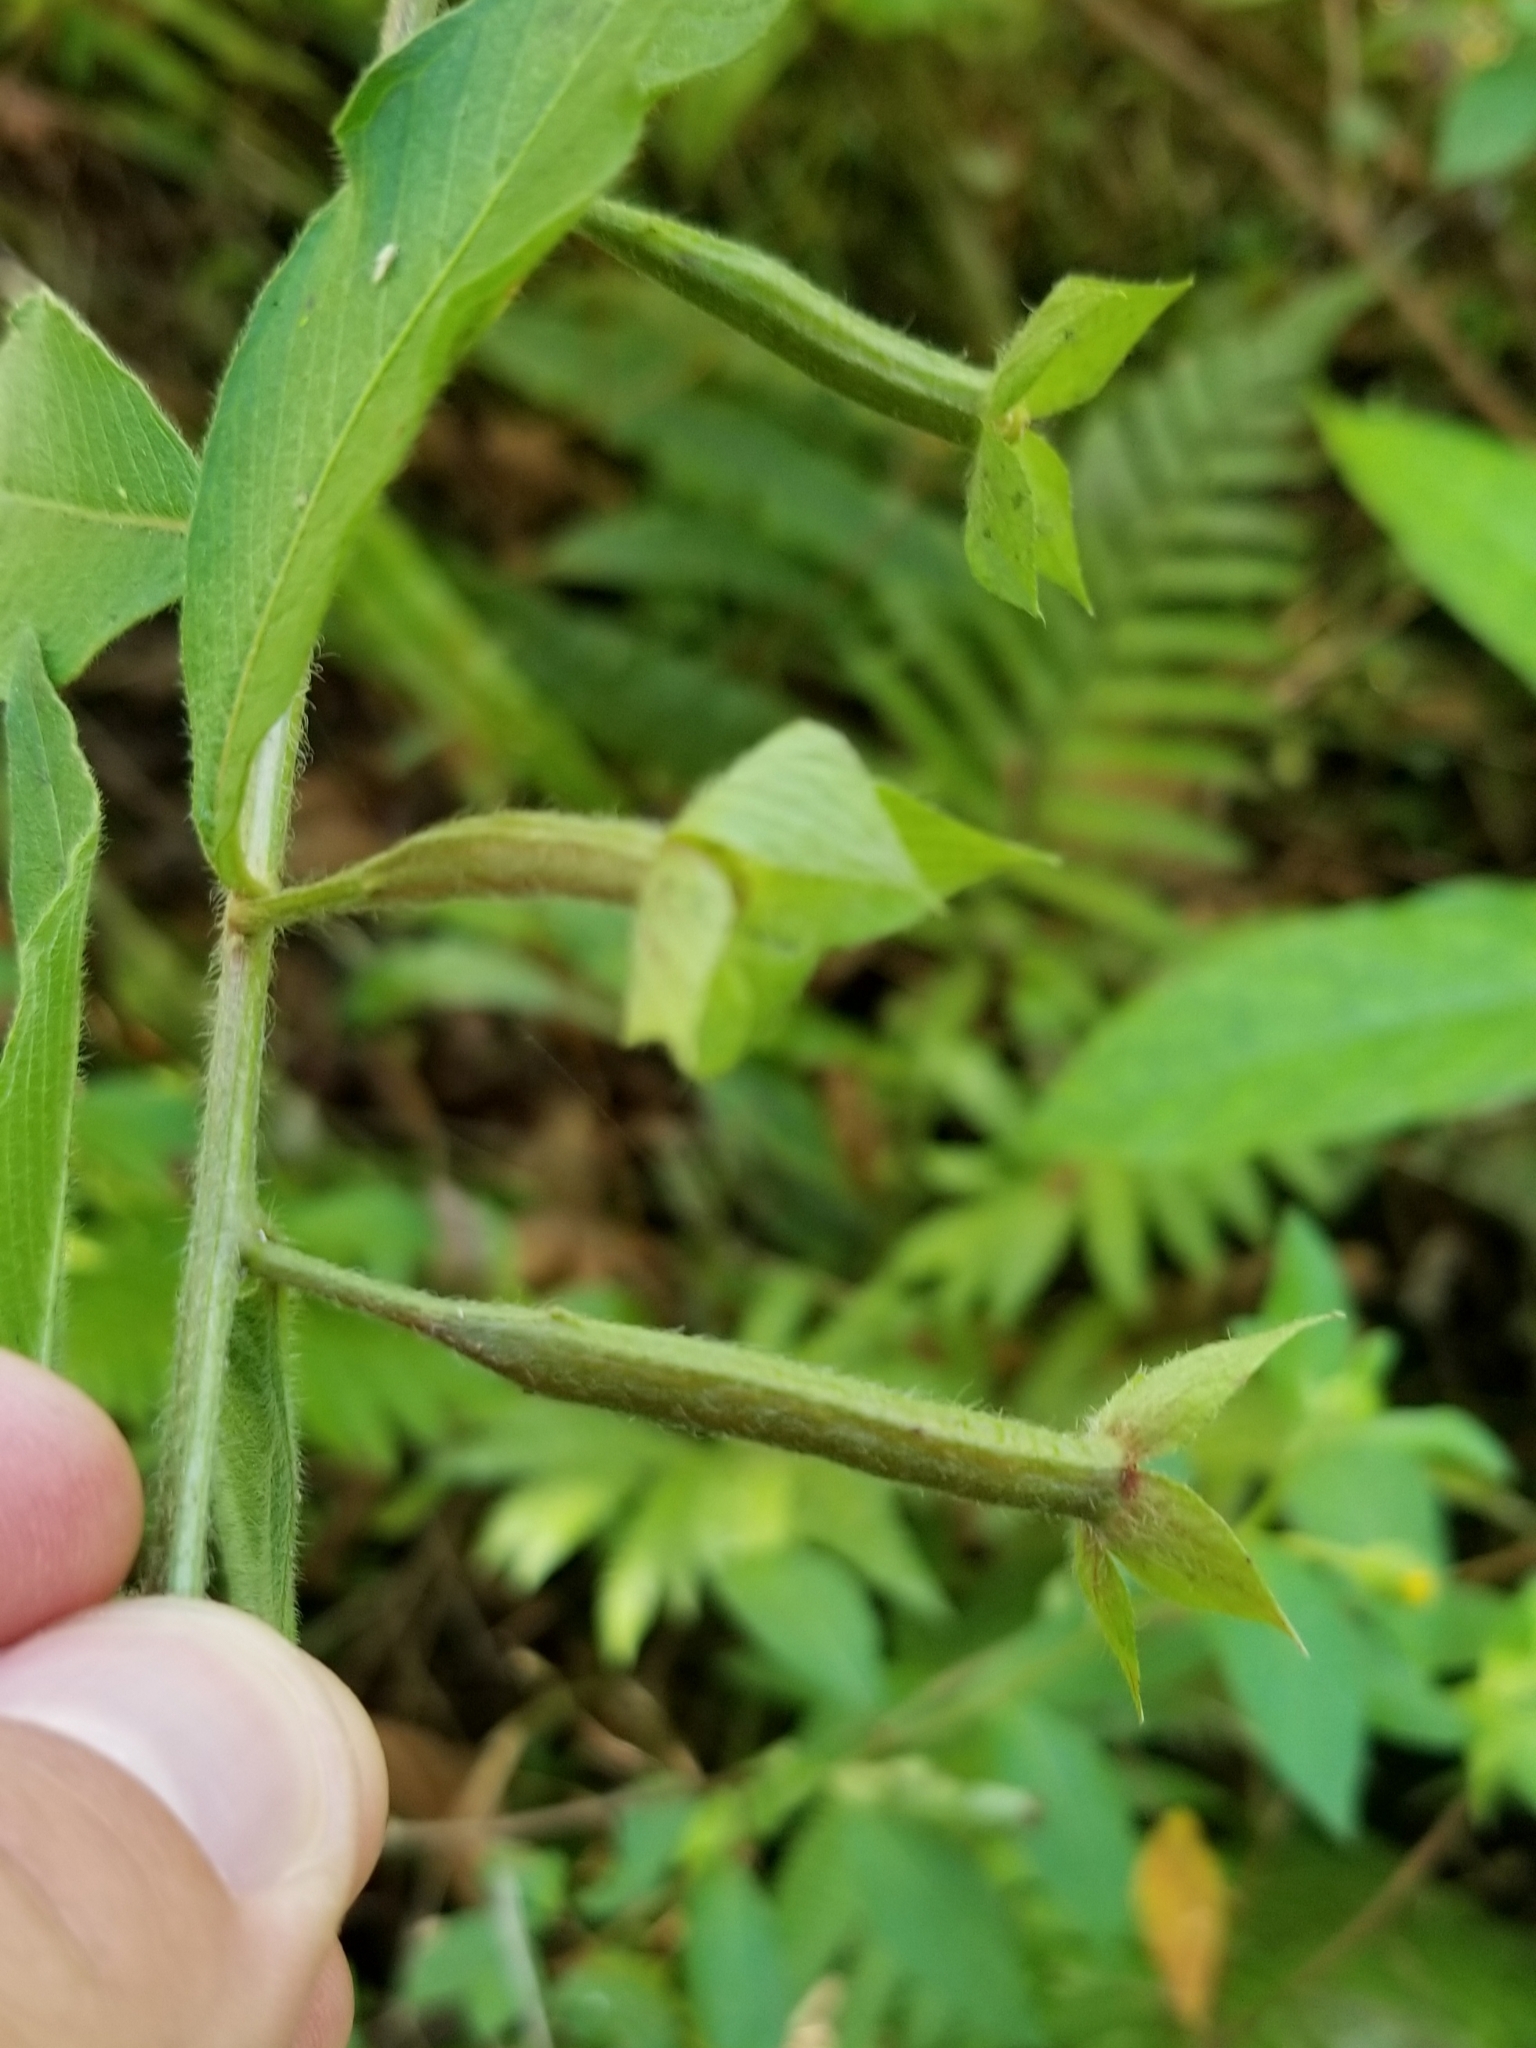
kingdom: Plantae
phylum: Tracheophyta
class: Magnoliopsida
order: Myrtales
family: Onagraceae
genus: Ludwigia
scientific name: Ludwigia octovalvis
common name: Water-primrose
